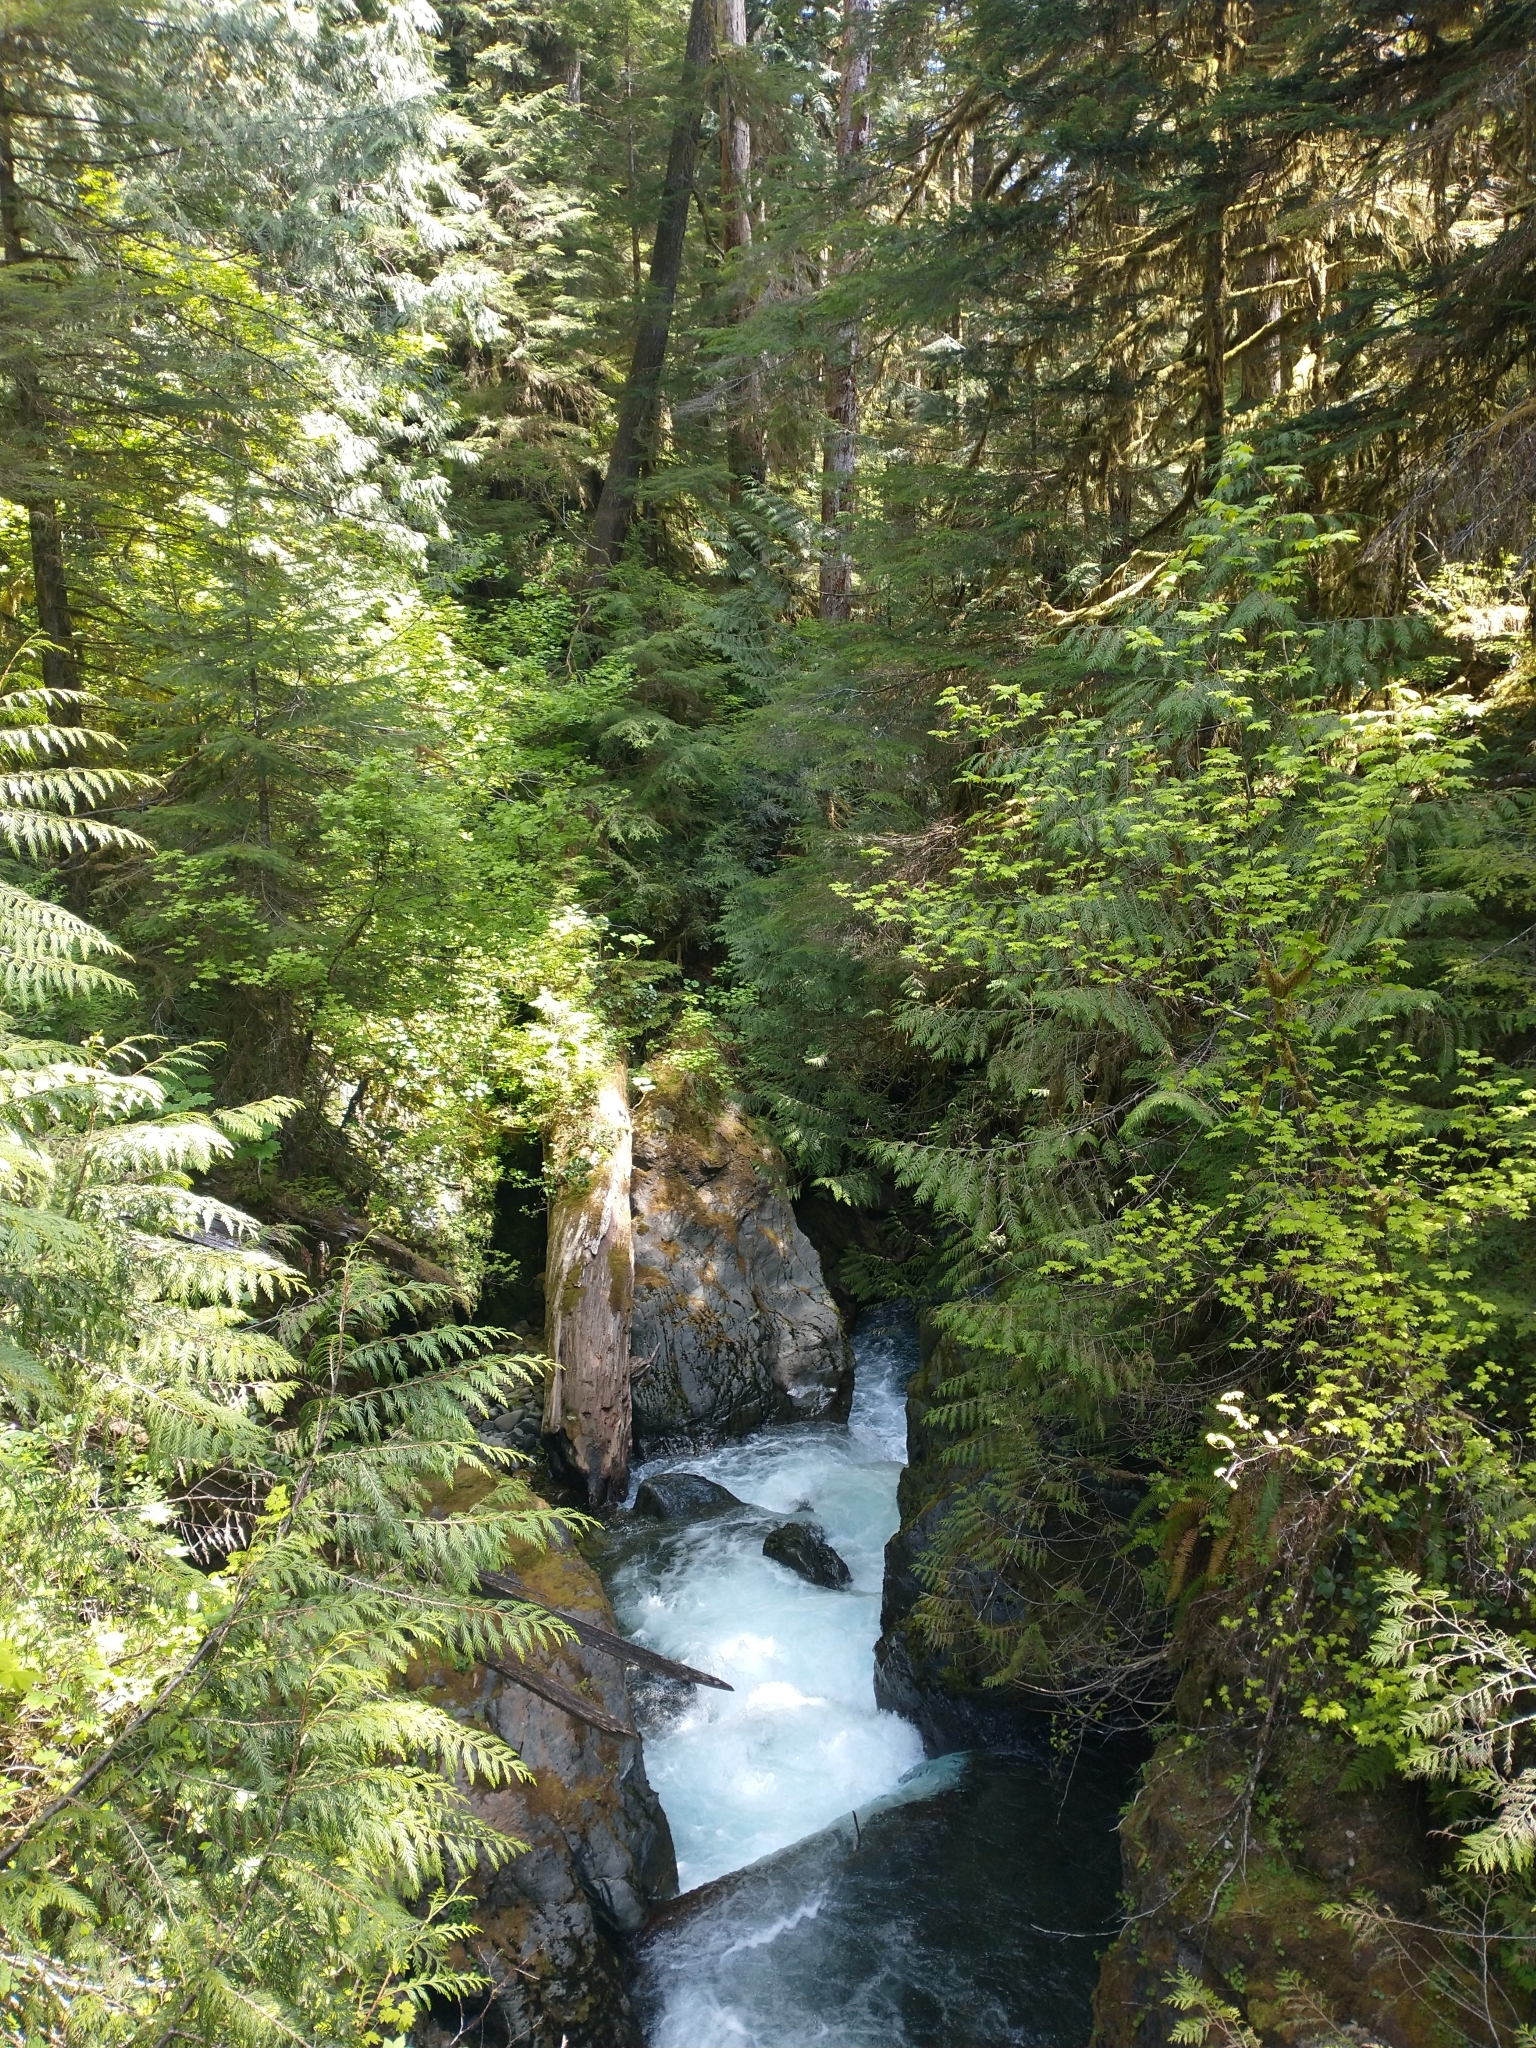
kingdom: Plantae
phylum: Tracheophyta
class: Pinopsida
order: Pinales
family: Cupressaceae
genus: Thuja
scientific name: Thuja plicata
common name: Western red-cedar
